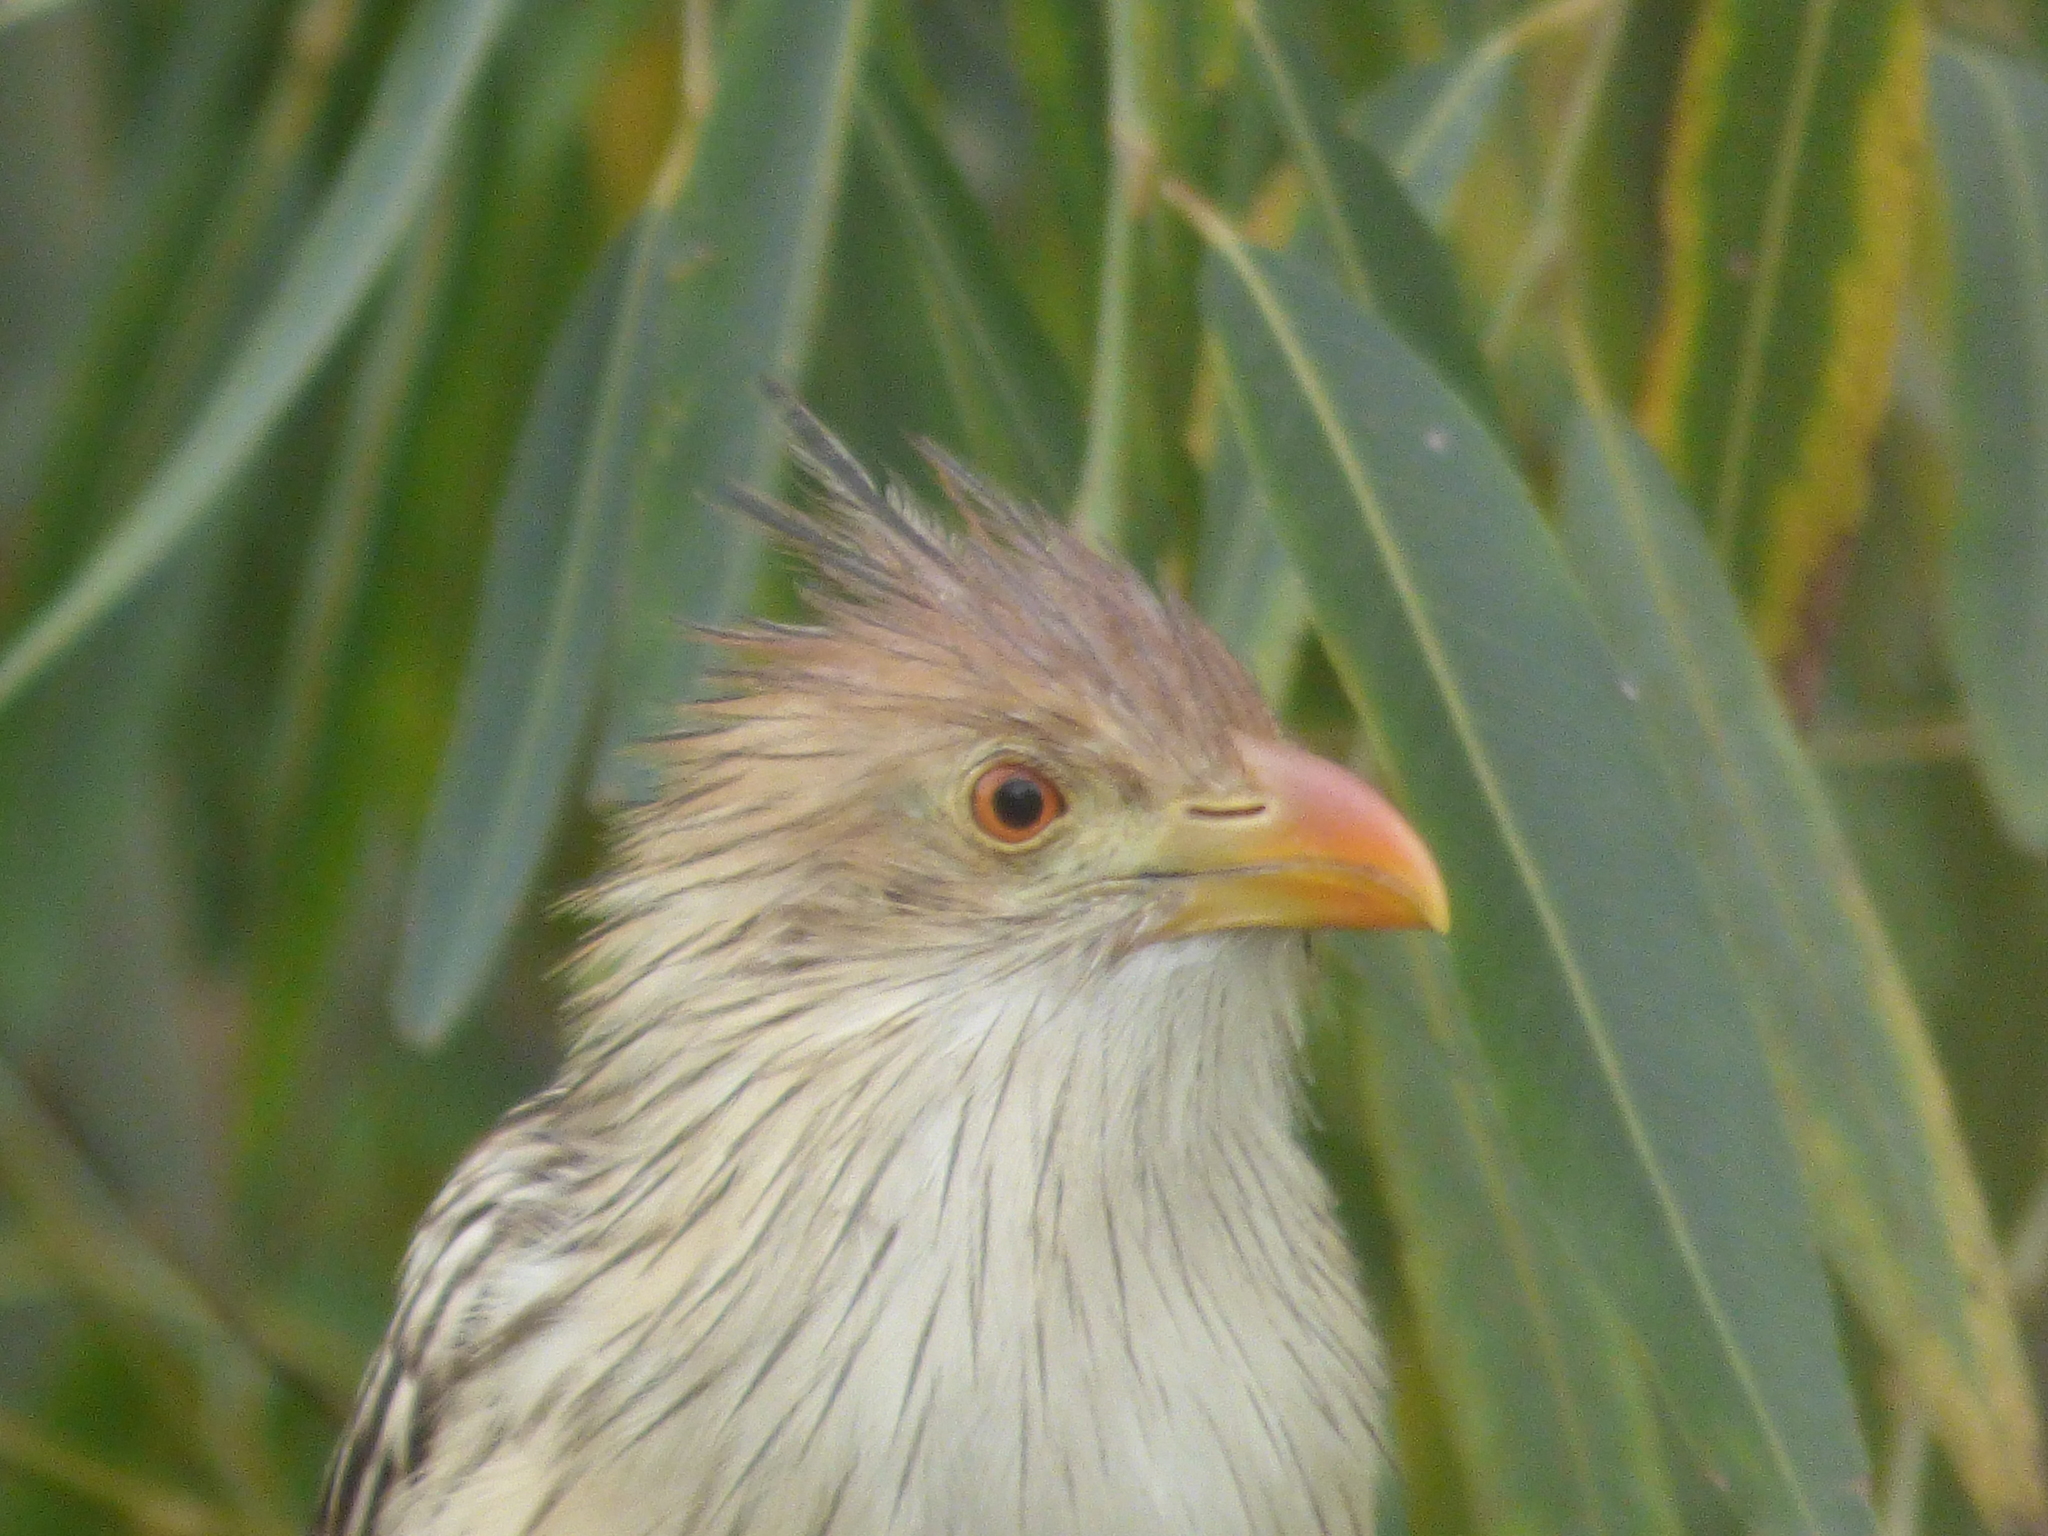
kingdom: Animalia
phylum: Chordata
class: Aves
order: Cuculiformes
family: Cuculidae
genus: Guira
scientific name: Guira guira
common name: Guira cuckoo
